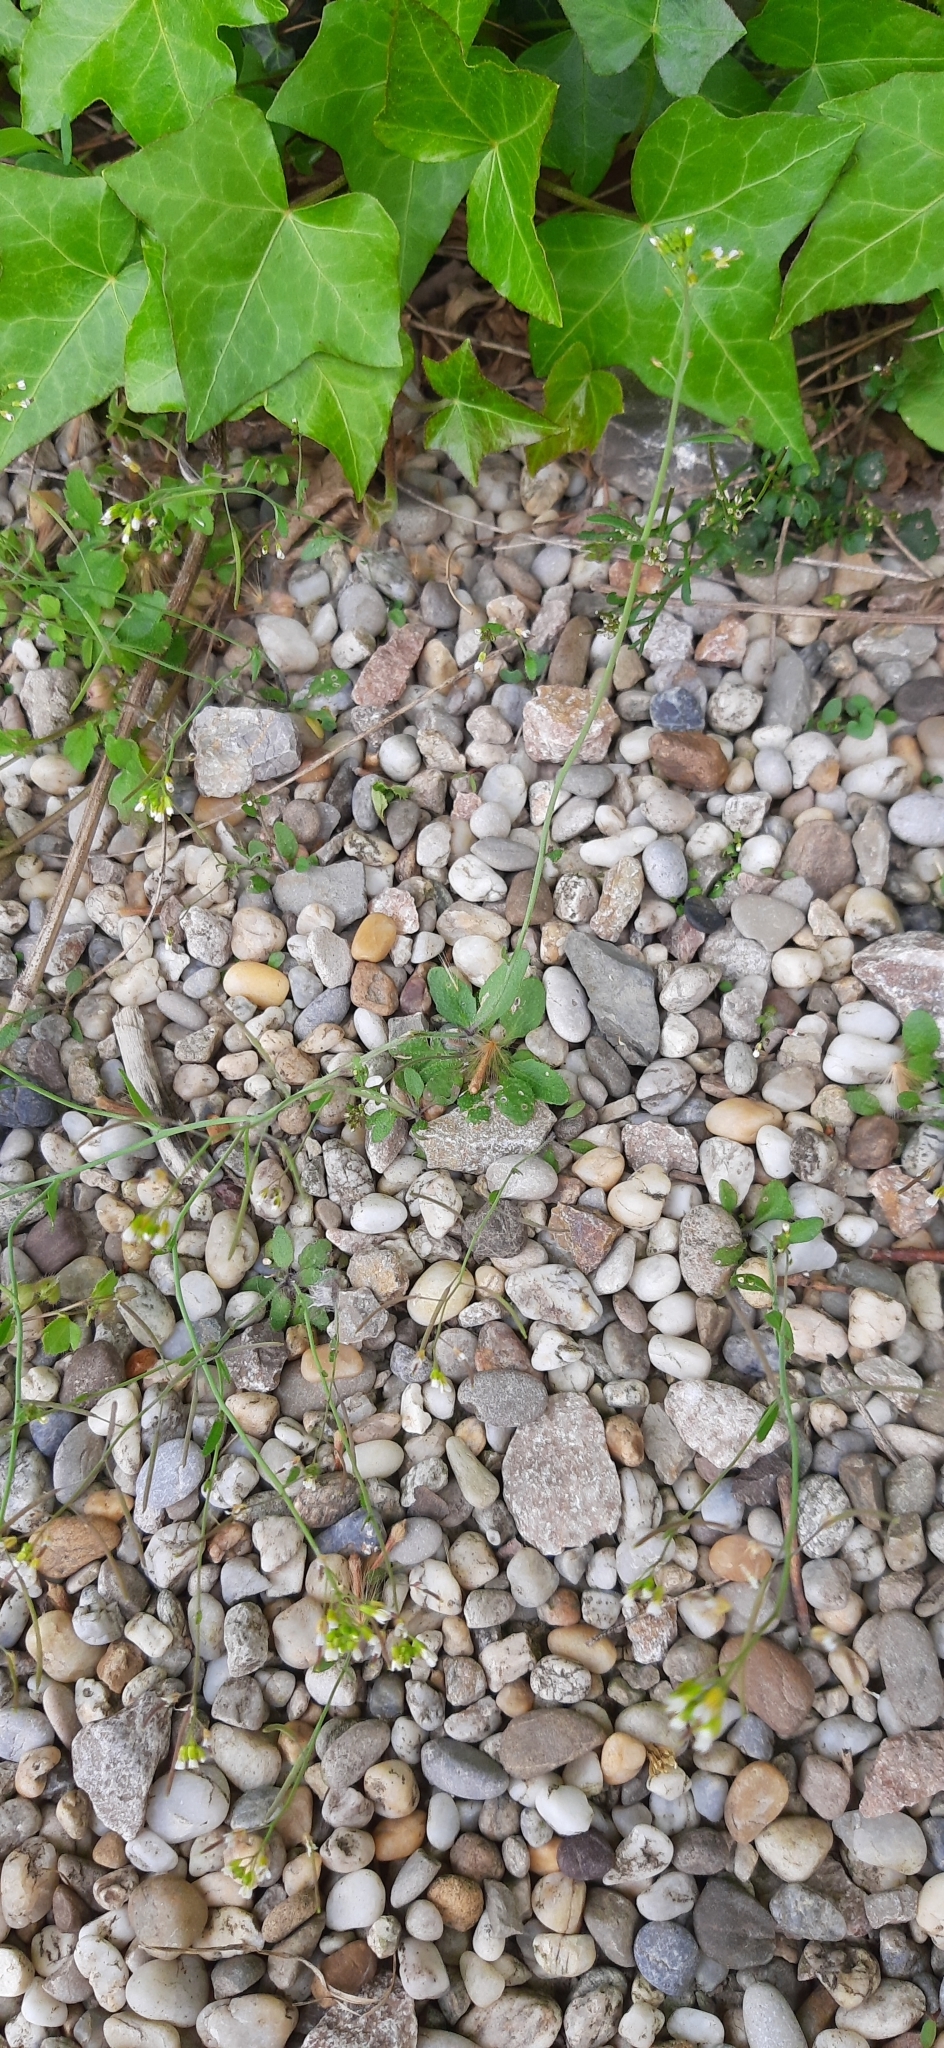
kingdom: Plantae
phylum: Tracheophyta
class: Magnoliopsida
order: Brassicales
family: Brassicaceae
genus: Arabidopsis
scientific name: Arabidopsis thaliana
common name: Thale cress
